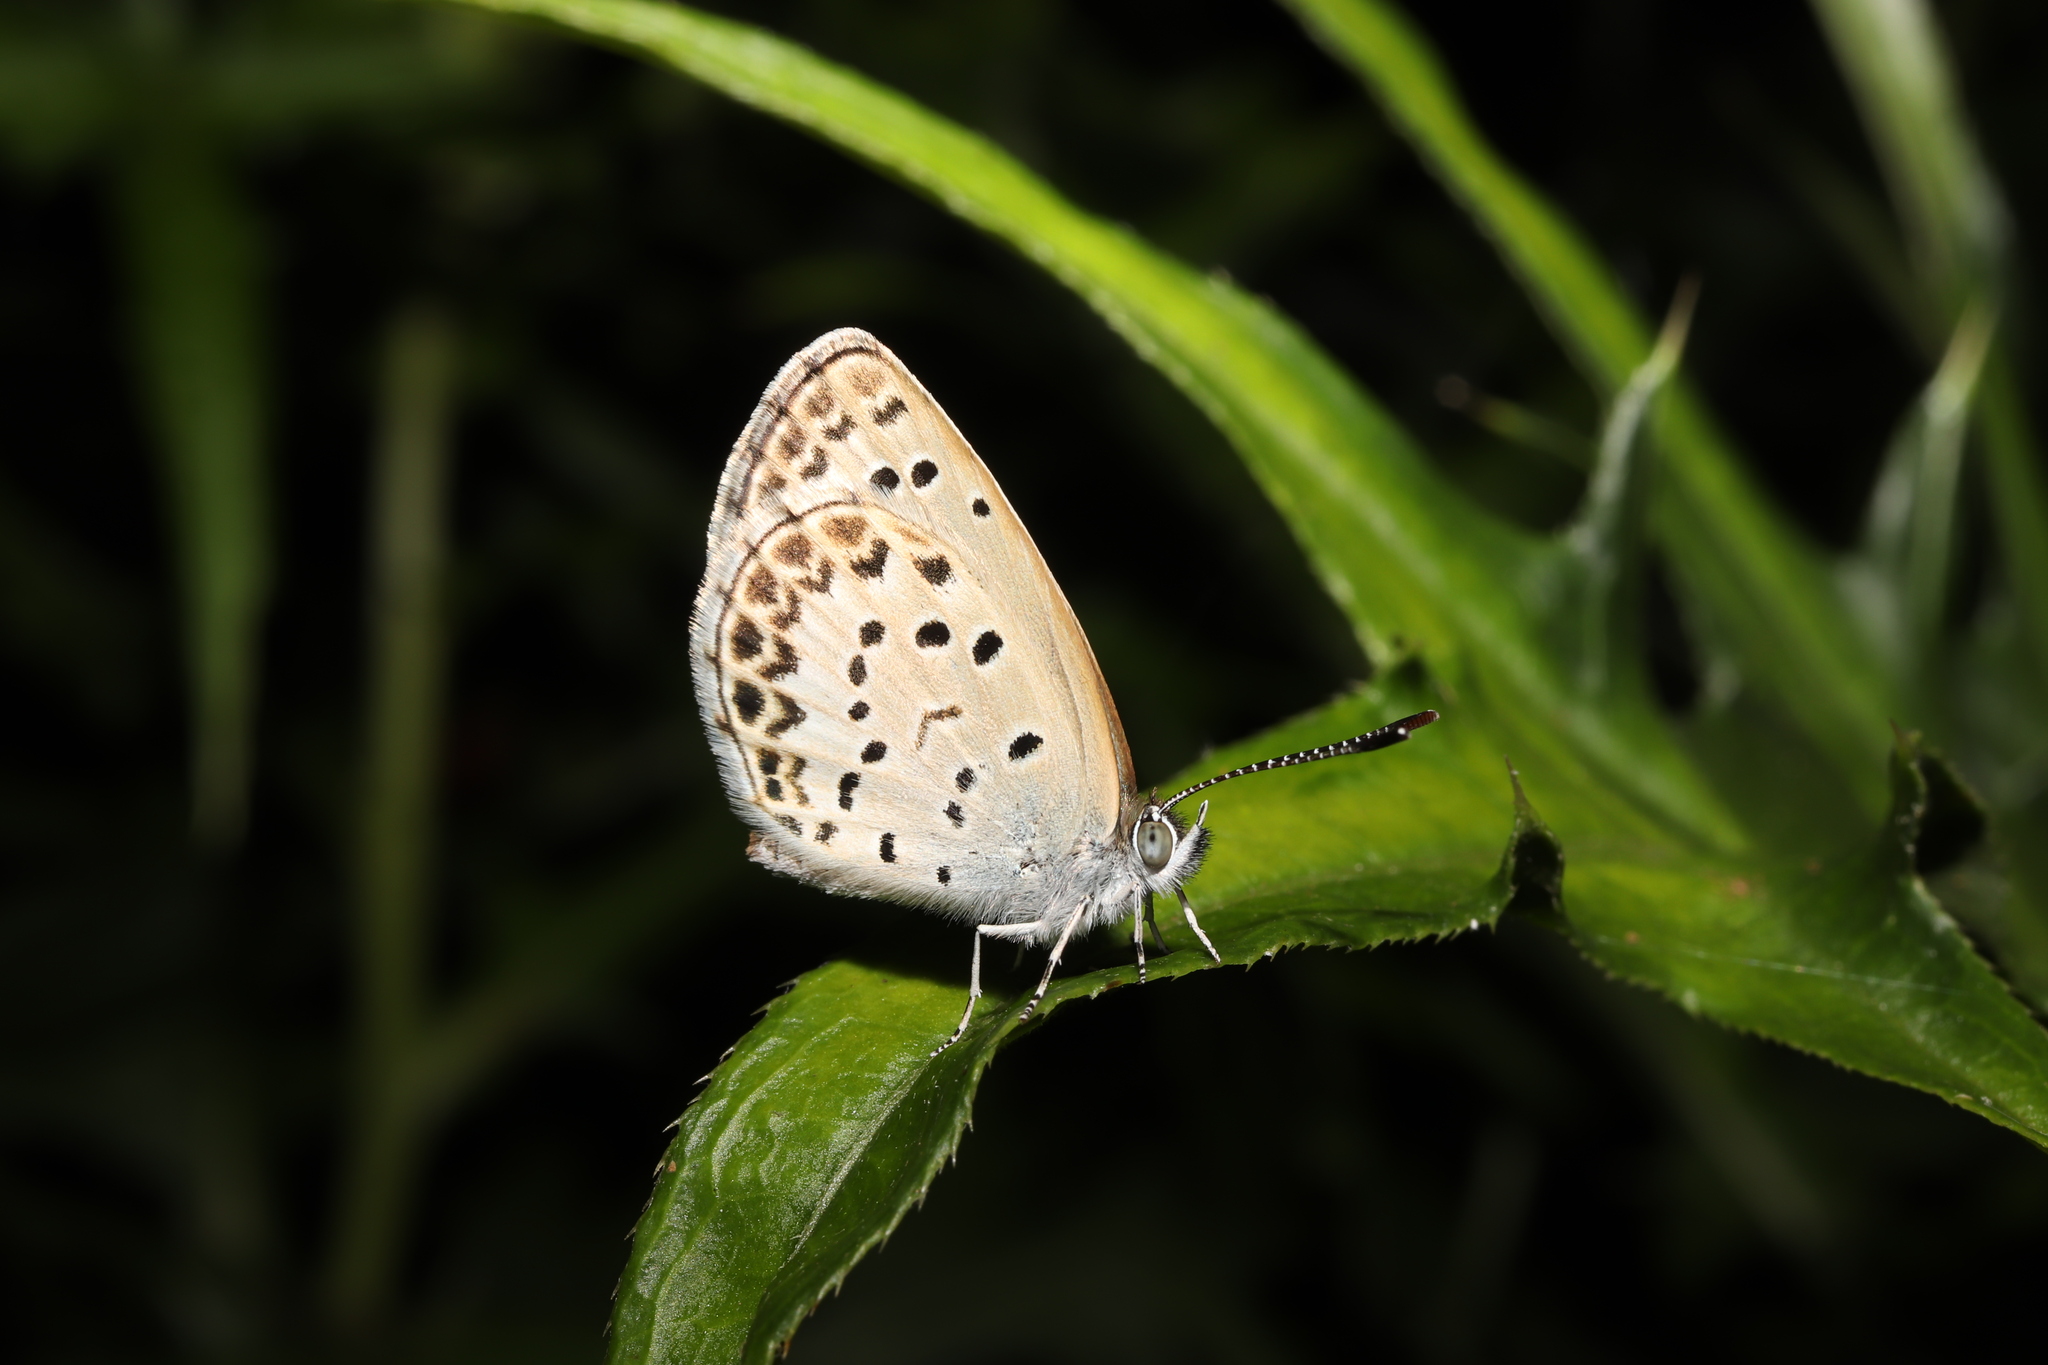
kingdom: Animalia
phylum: Arthropoda
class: Insecta
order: Lepidoptera
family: Lycaenidae
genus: Pseudozizeeria
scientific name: Pseudozizeeria maha
